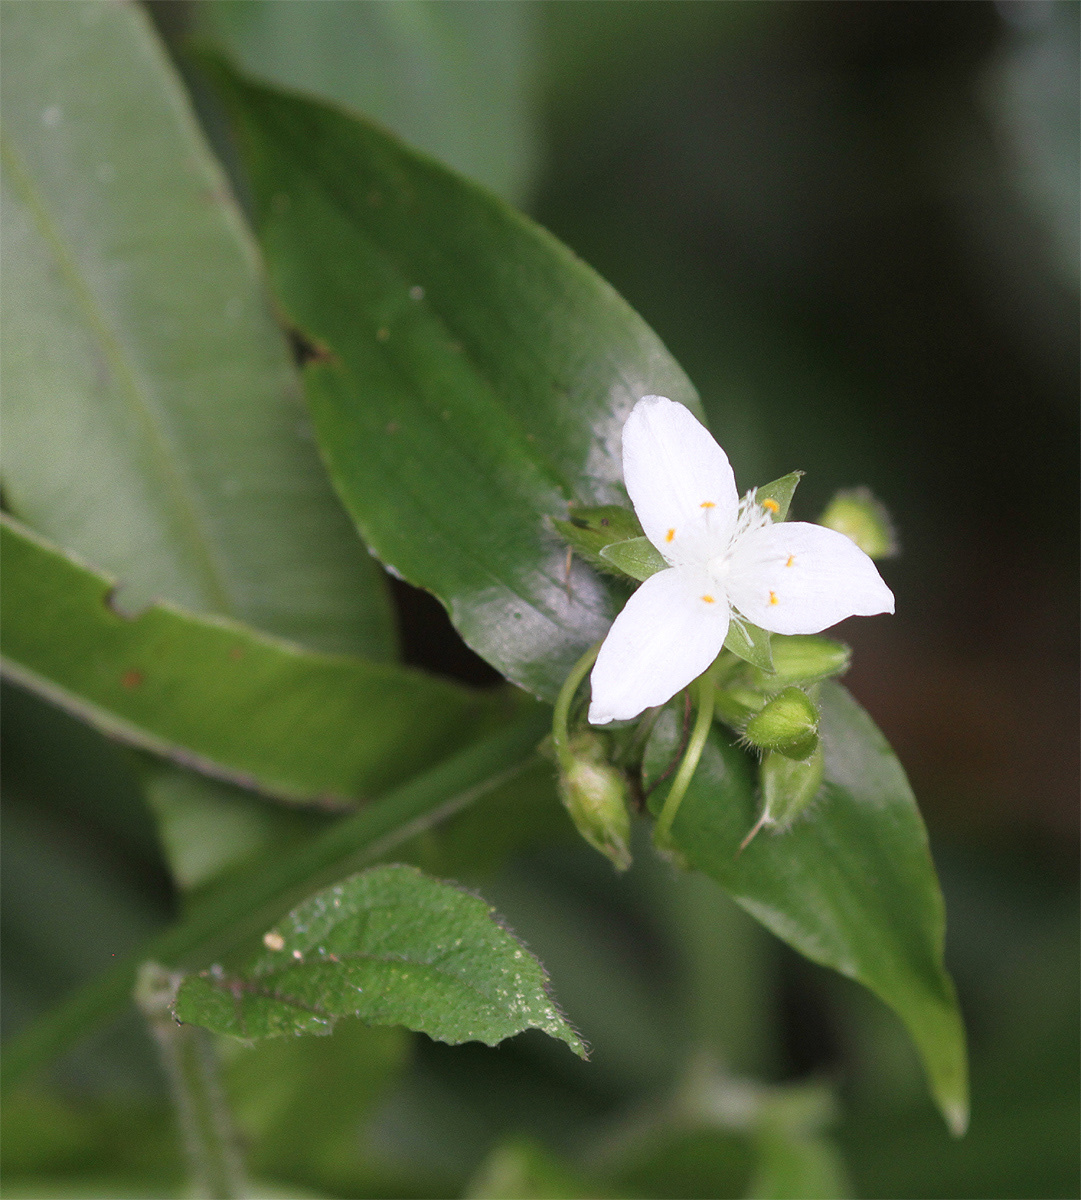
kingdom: Plantae
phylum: Tracheophyta
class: Liliopsida
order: Commelinales
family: Commelinaceae
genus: Tradescantia
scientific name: Tradescantia fluminensis
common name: Wandering-jew
